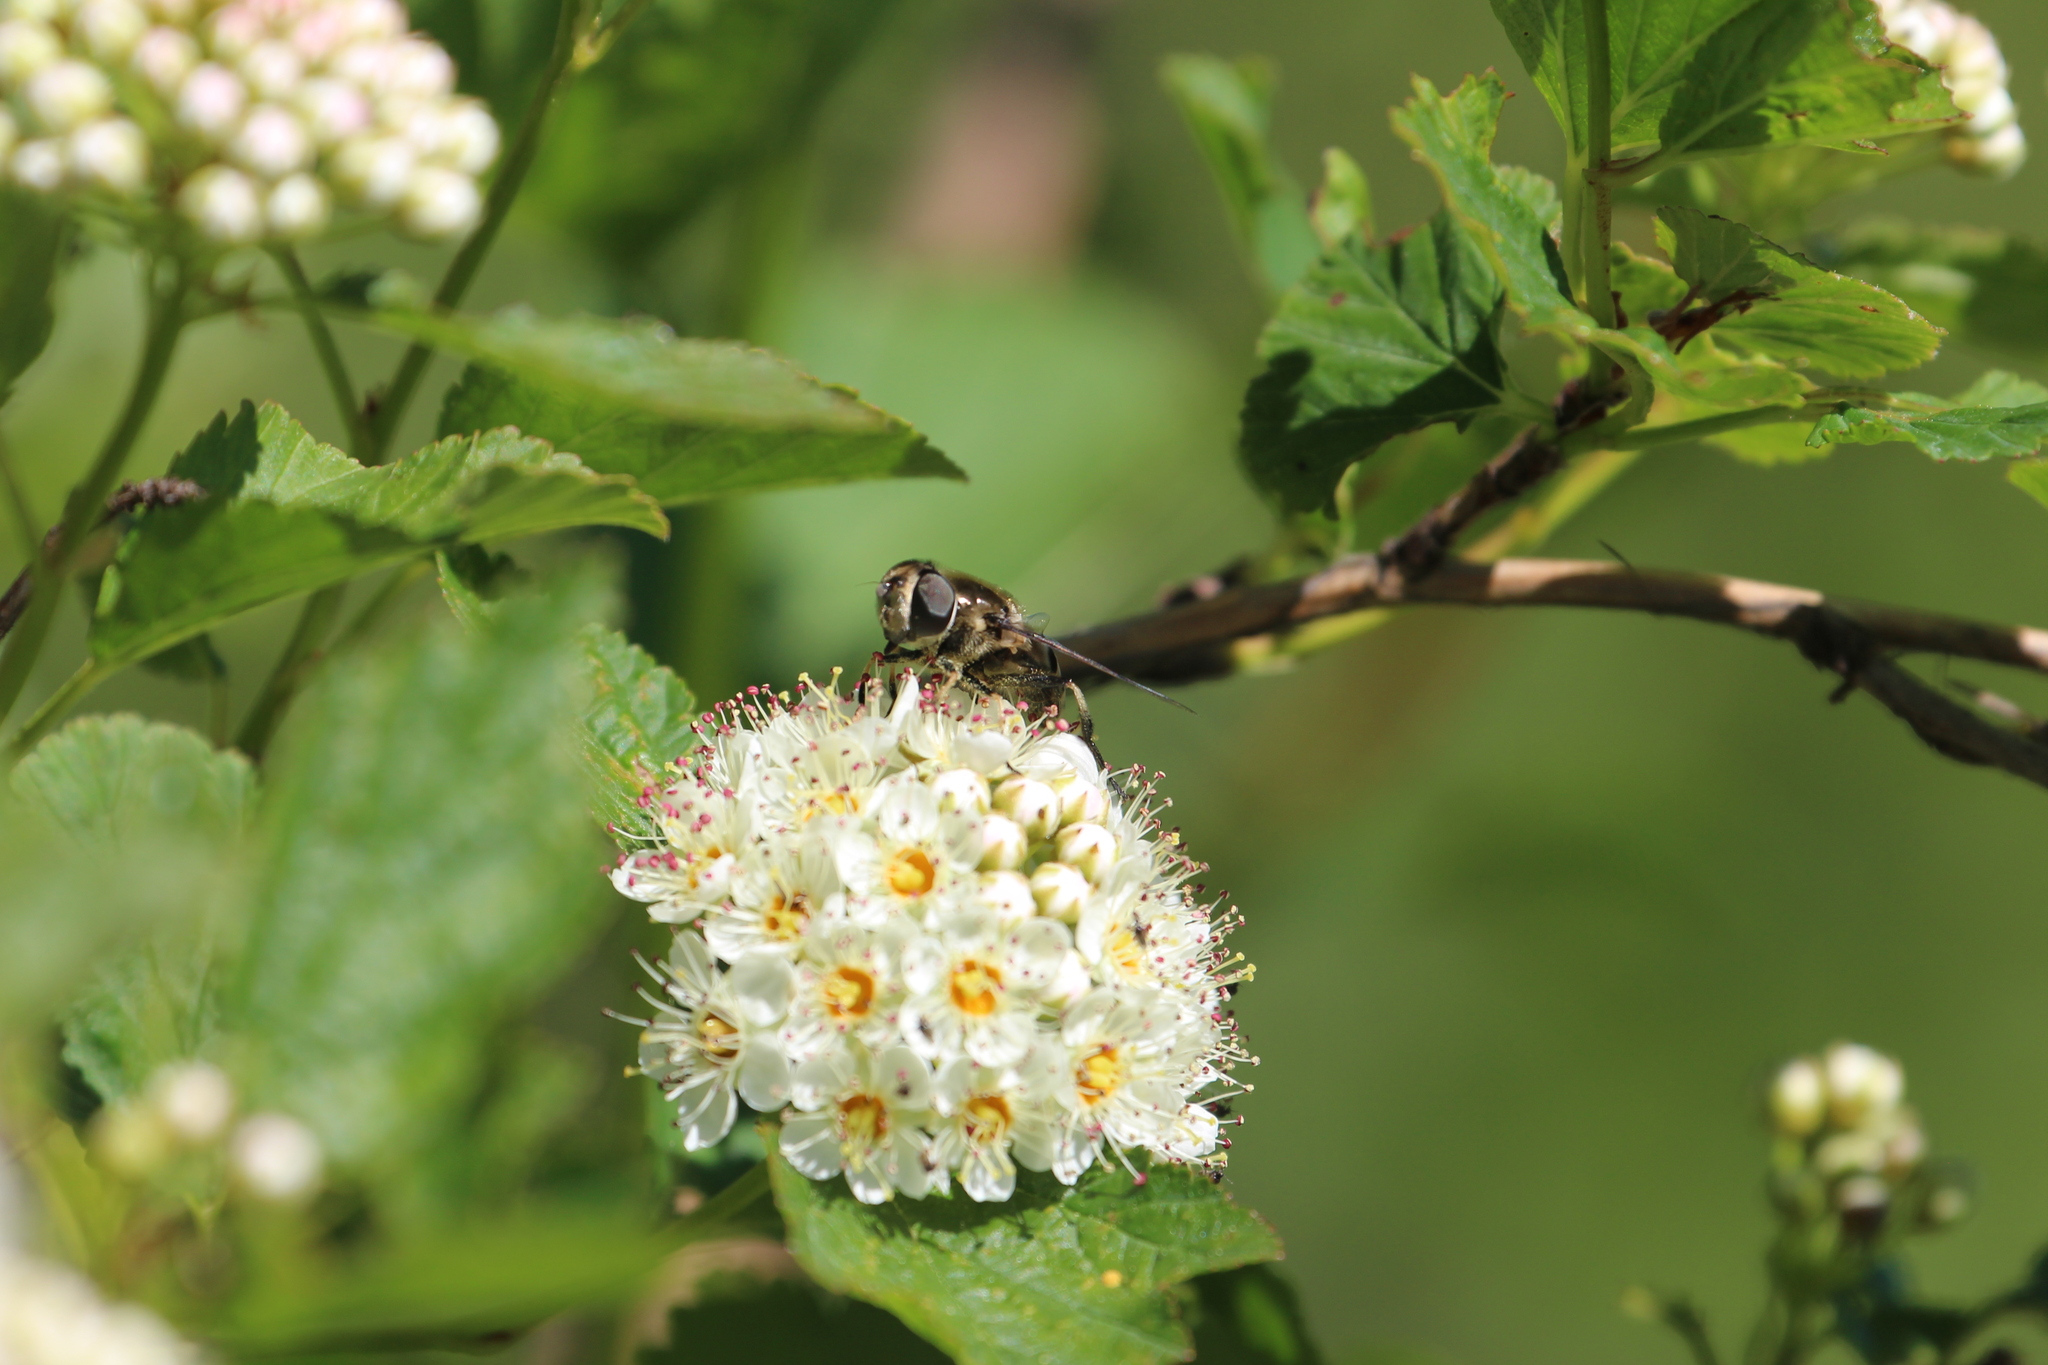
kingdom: Animalia
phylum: Arthropoda
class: Insecta
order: Diptera
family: Syrphidae
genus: Eristalis
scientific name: Eristalis dimidiata
